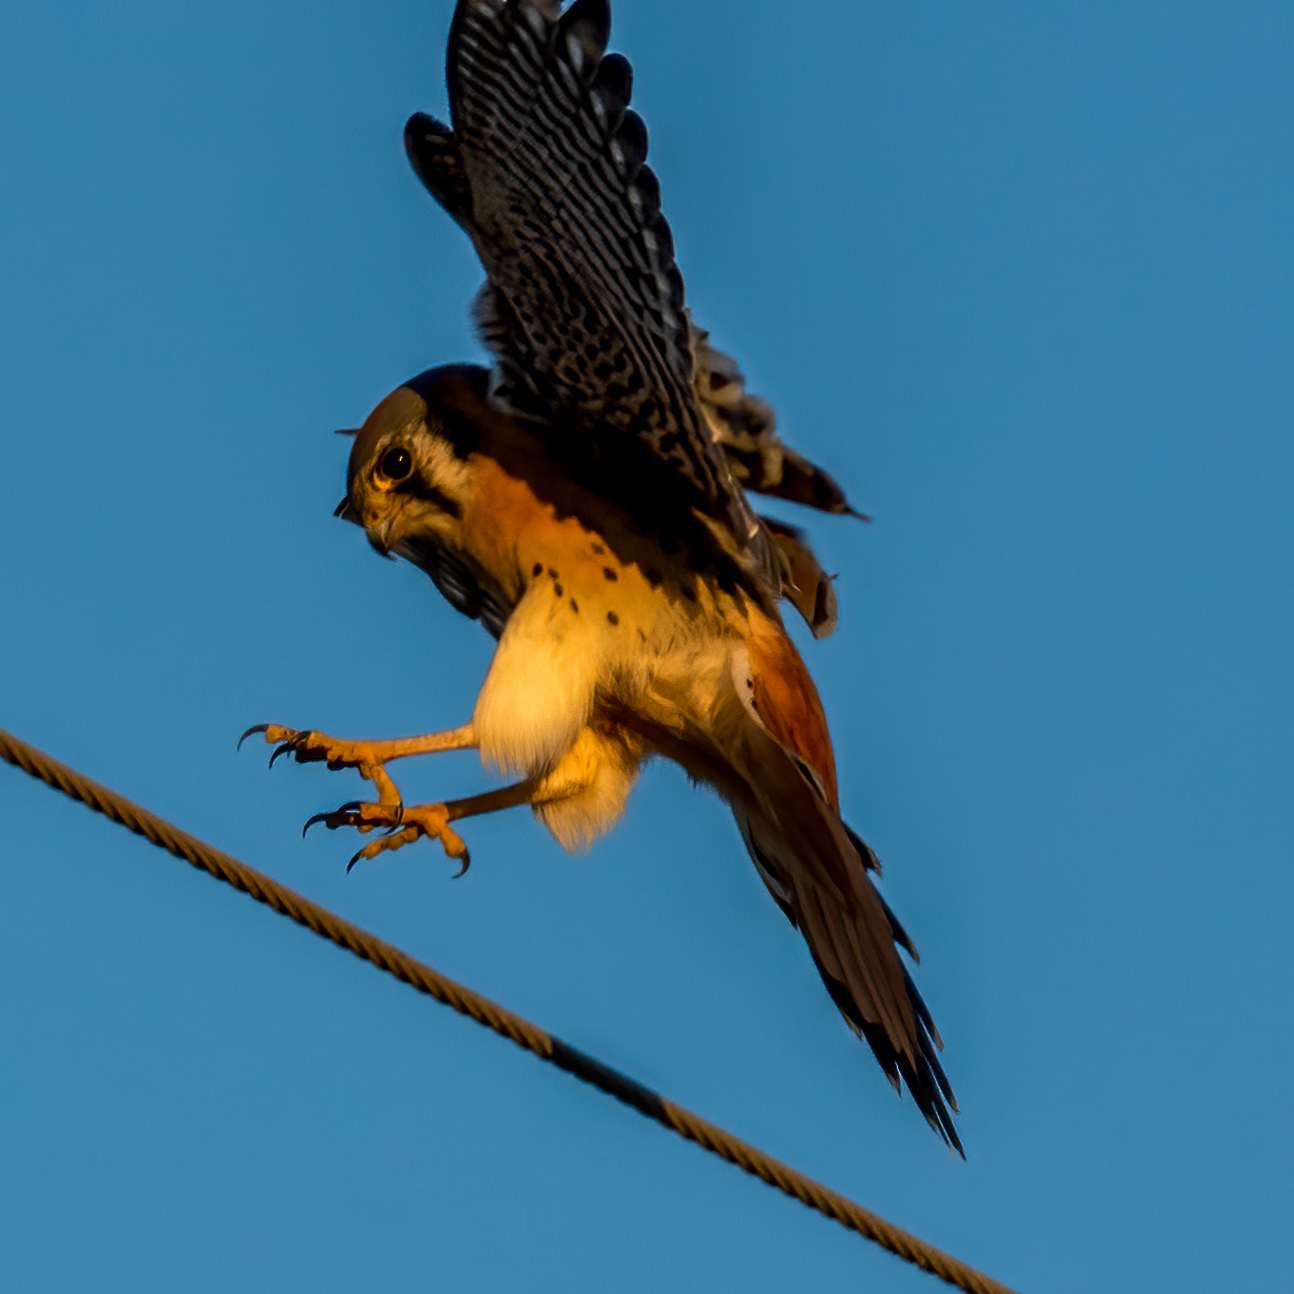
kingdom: Animalia
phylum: Chordata
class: Aves
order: Falconiformes
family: Falconidae
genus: Falco
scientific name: Falco sparverius
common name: American kestrel
